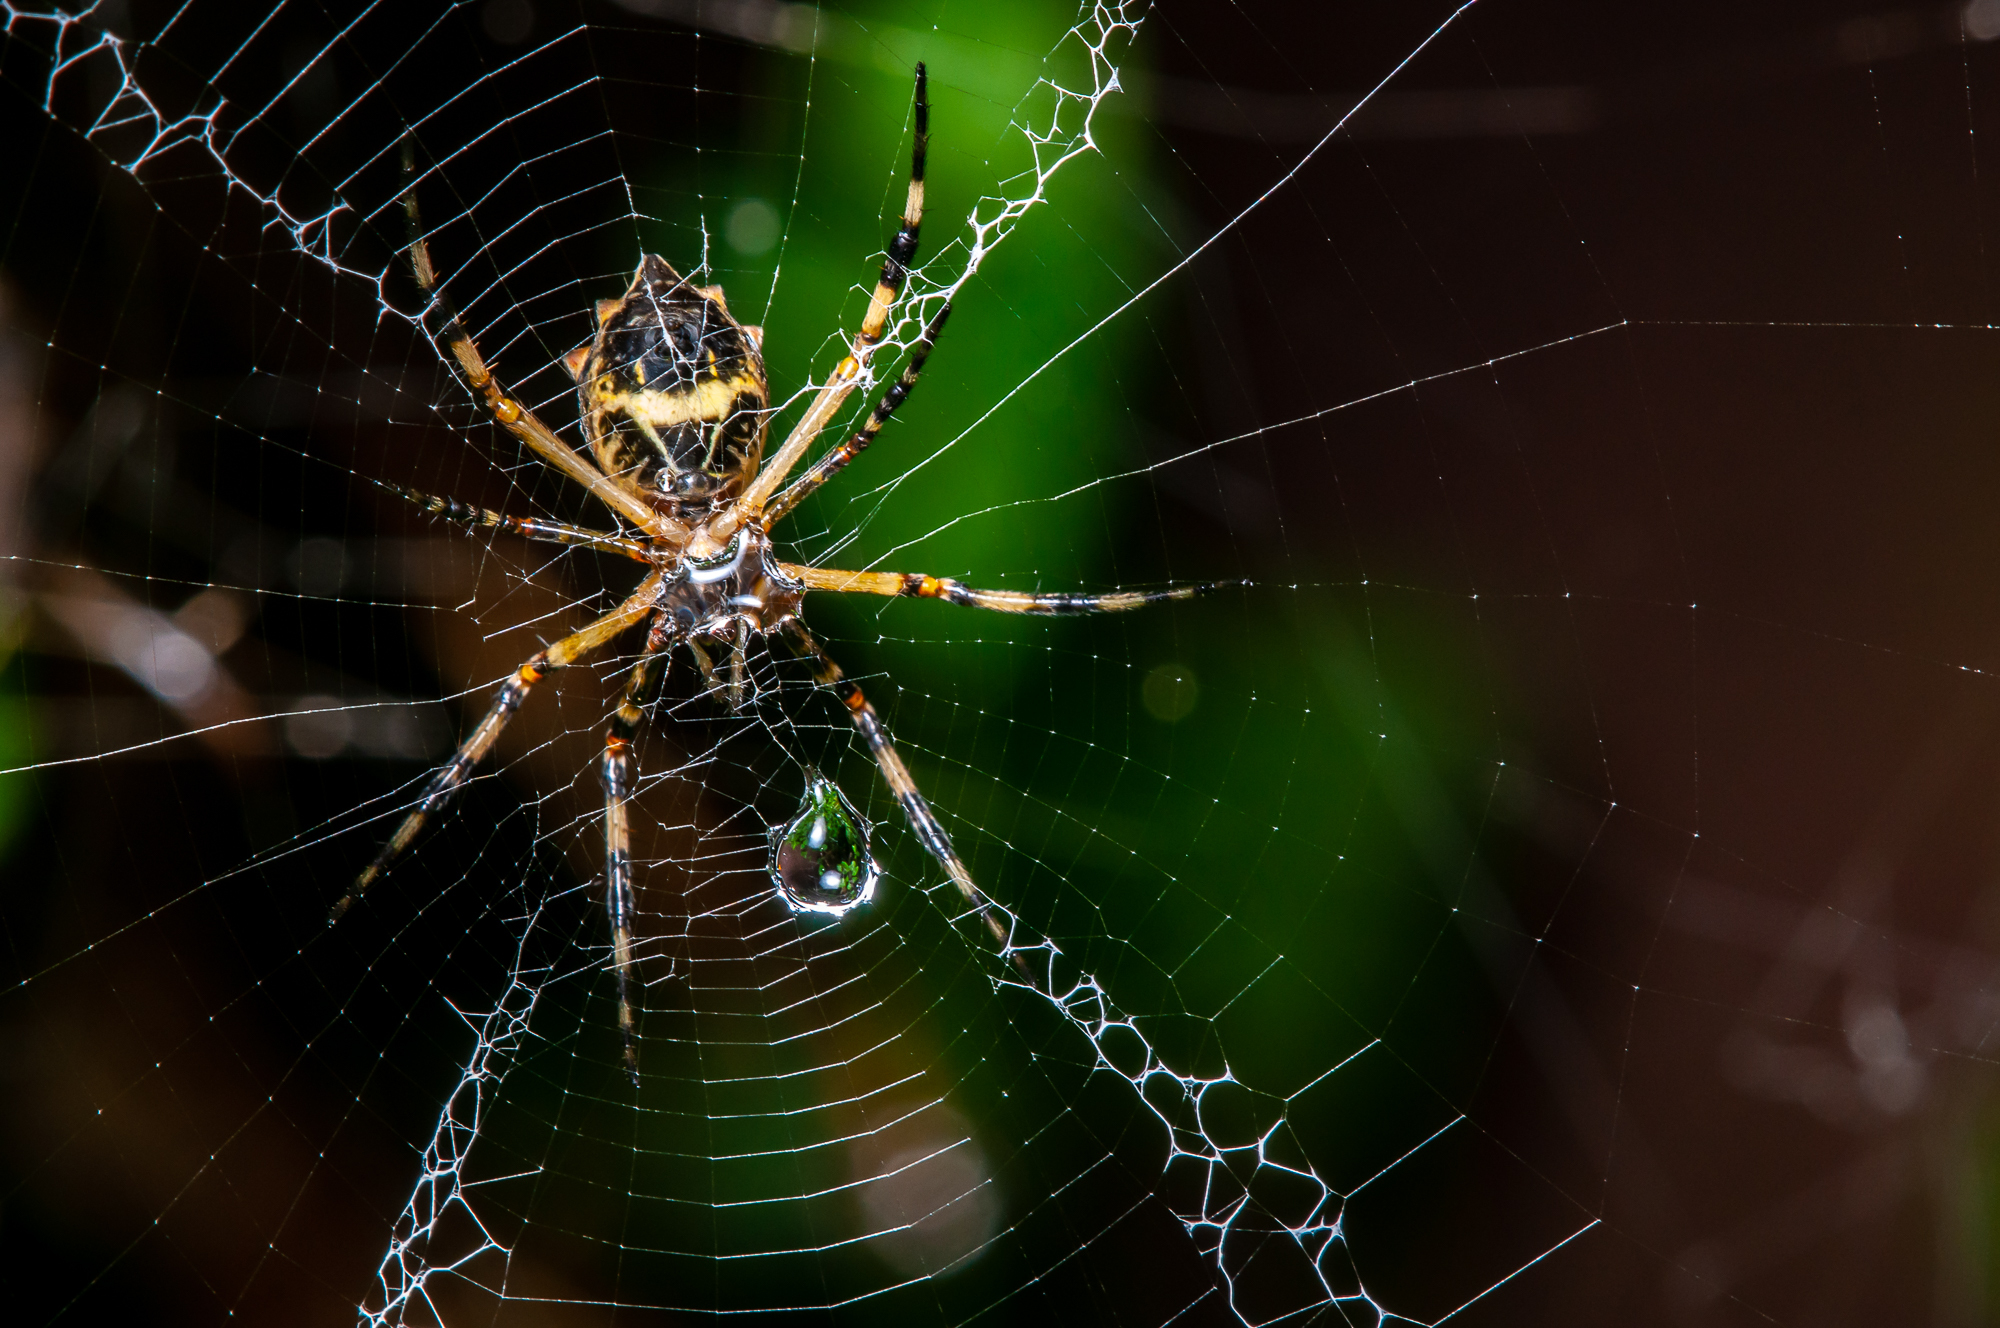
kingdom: Animalia
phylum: Arthropoda
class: Arachnida
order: Araneae
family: Araneidae
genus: Argiope
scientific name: Argiope argentata
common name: Orb weavers
